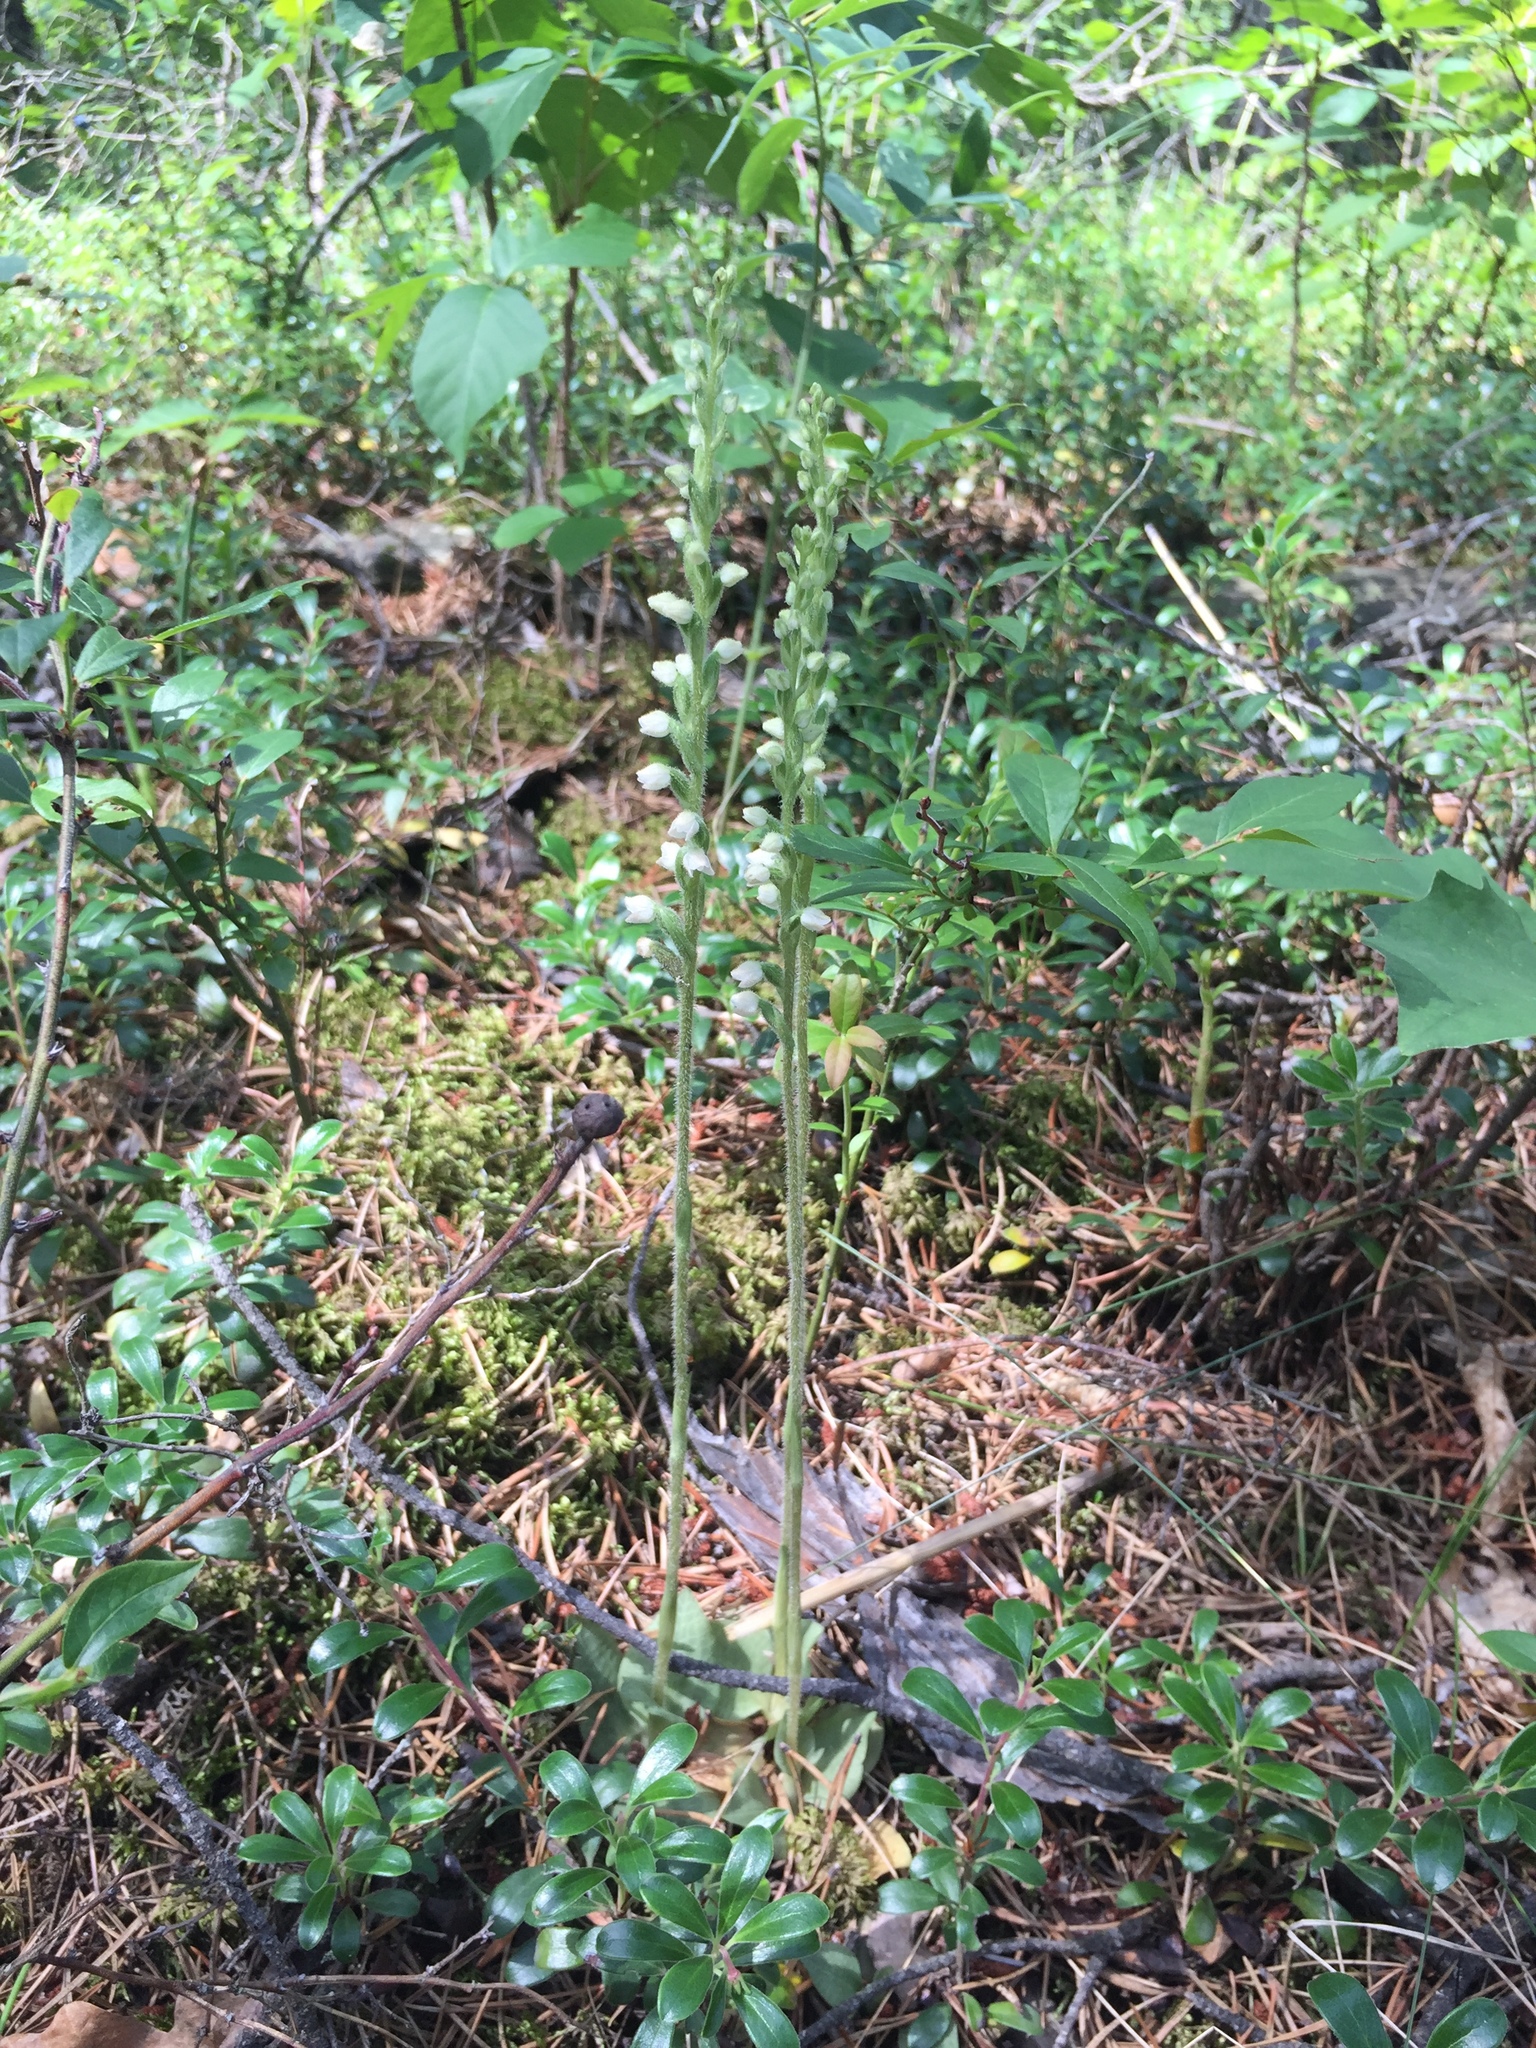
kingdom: Plantae
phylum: Tracheophyta
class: Liliopsida
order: Asparagales
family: Orchidaceae
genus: Goodyera
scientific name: Goodyera repens
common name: Creeping lady's-tresses
